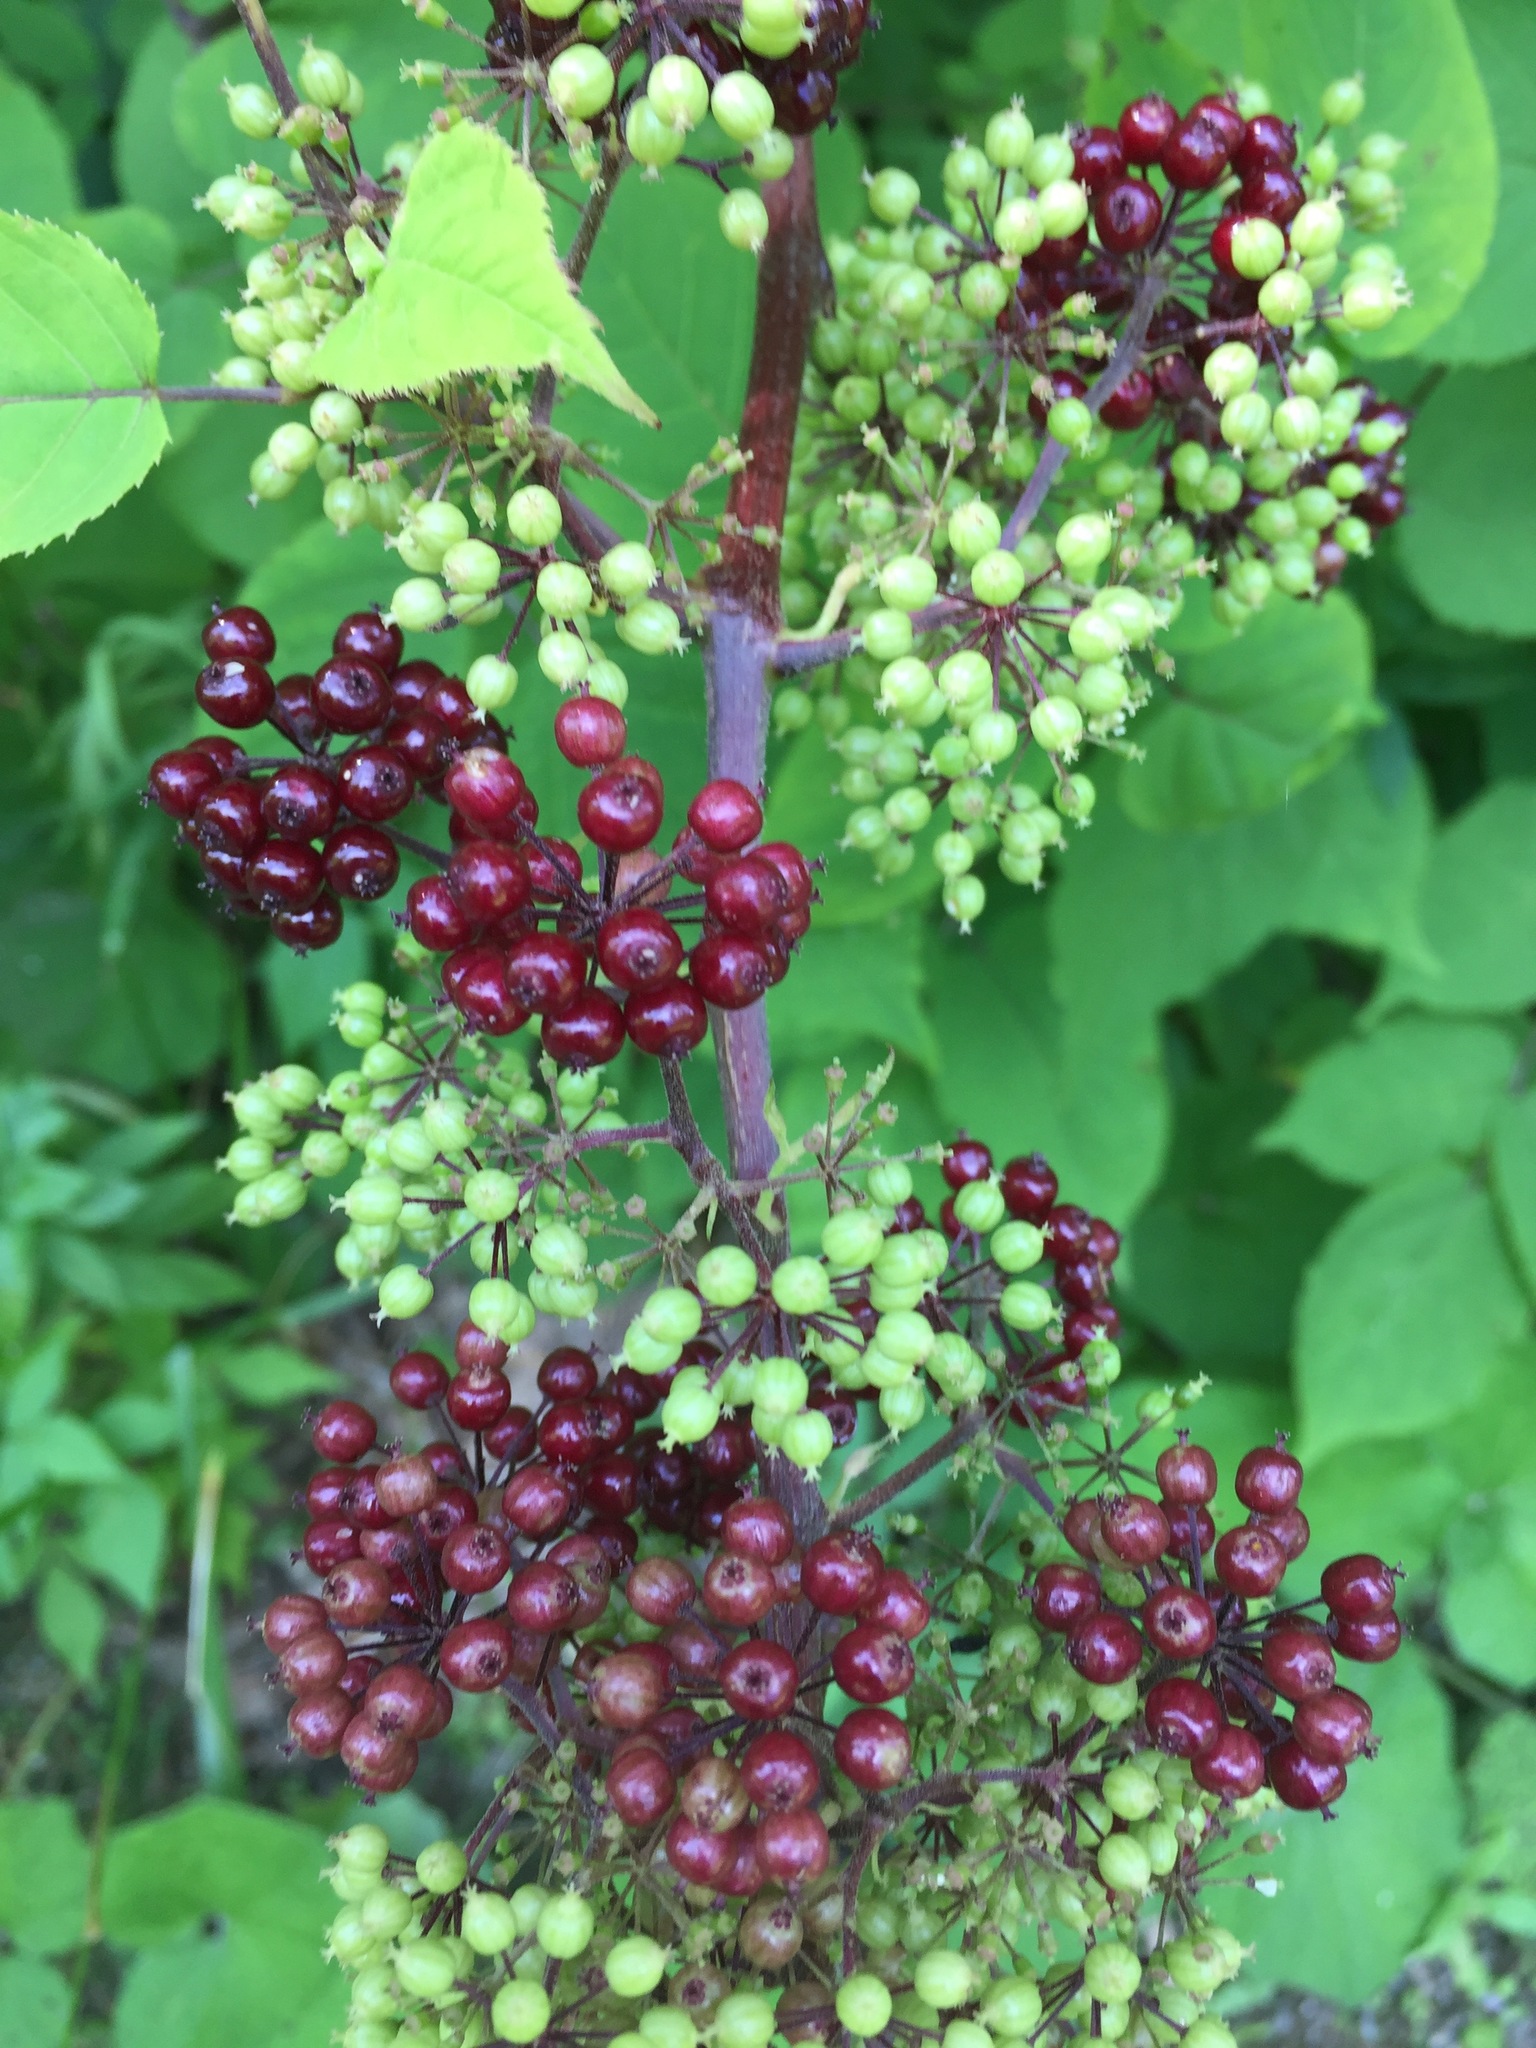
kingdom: Plantae
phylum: Tracheophyta
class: Magnoliopsida
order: Apiales
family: Araliaceae
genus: Aralia
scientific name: Aralia racemosa
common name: American-spikenard
